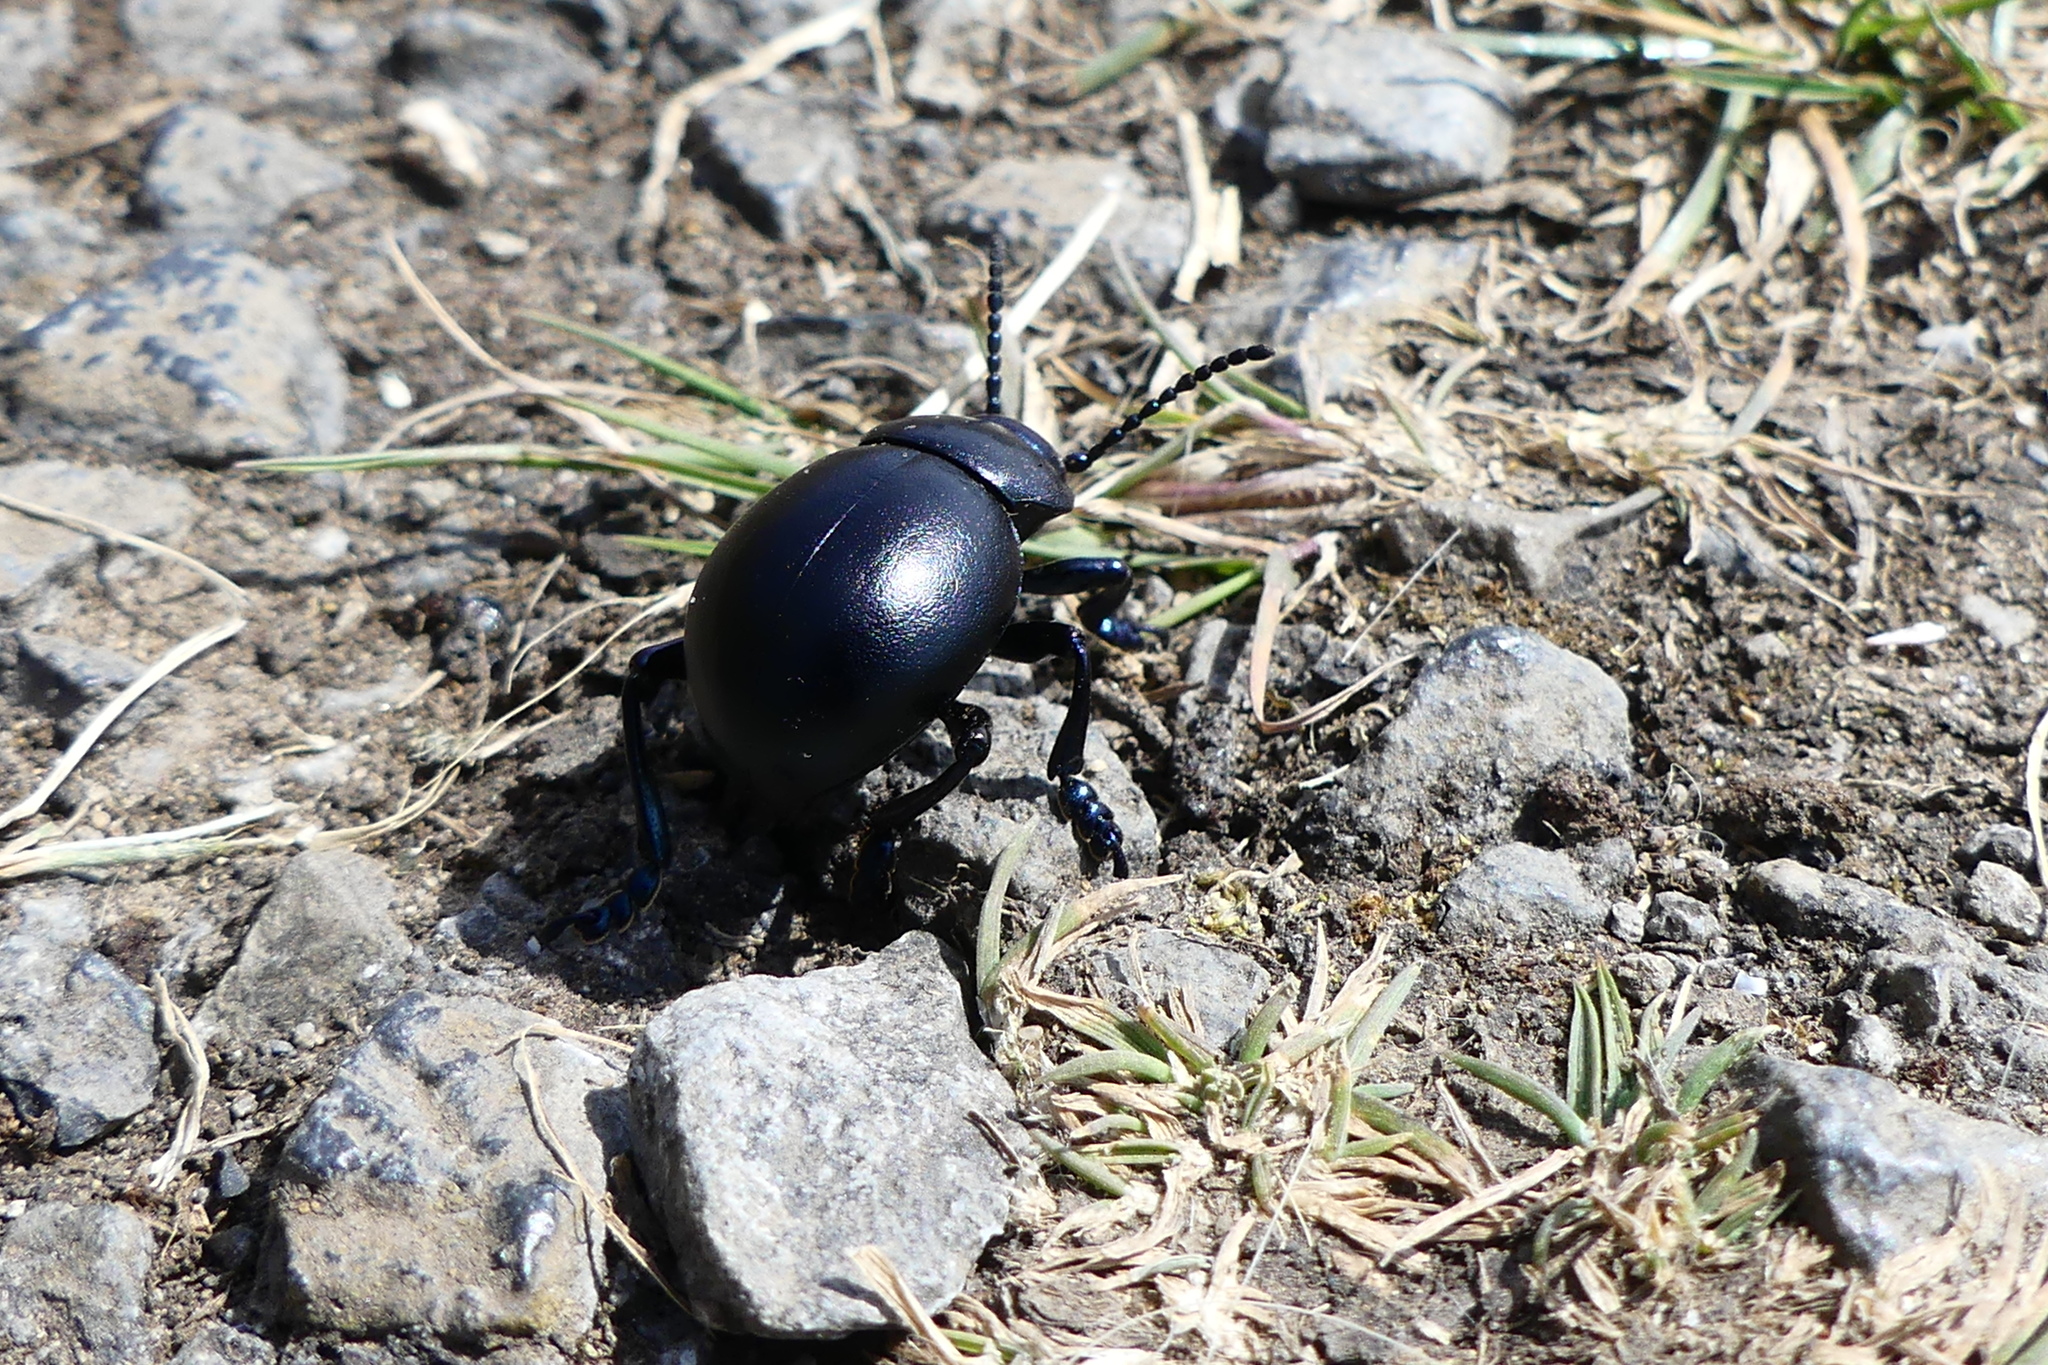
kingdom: Animalia
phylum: Arthropoda
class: Insecta
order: Coleoptera
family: Chrysomelidae
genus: Timarcha
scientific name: Timarcha tenebricosa
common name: Bloody-nosed beetle
